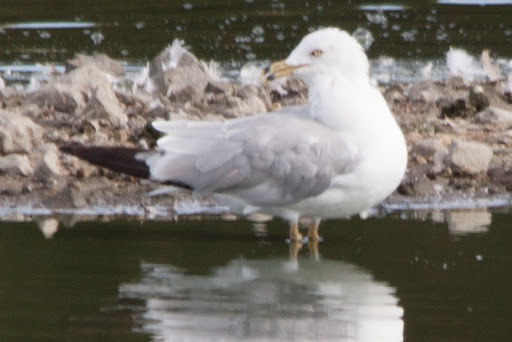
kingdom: Animalia
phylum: Chordata
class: Aves
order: Charadriiformes
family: Laridae
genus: Larus
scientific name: Larus delawarensis
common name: Ring-billed gull
